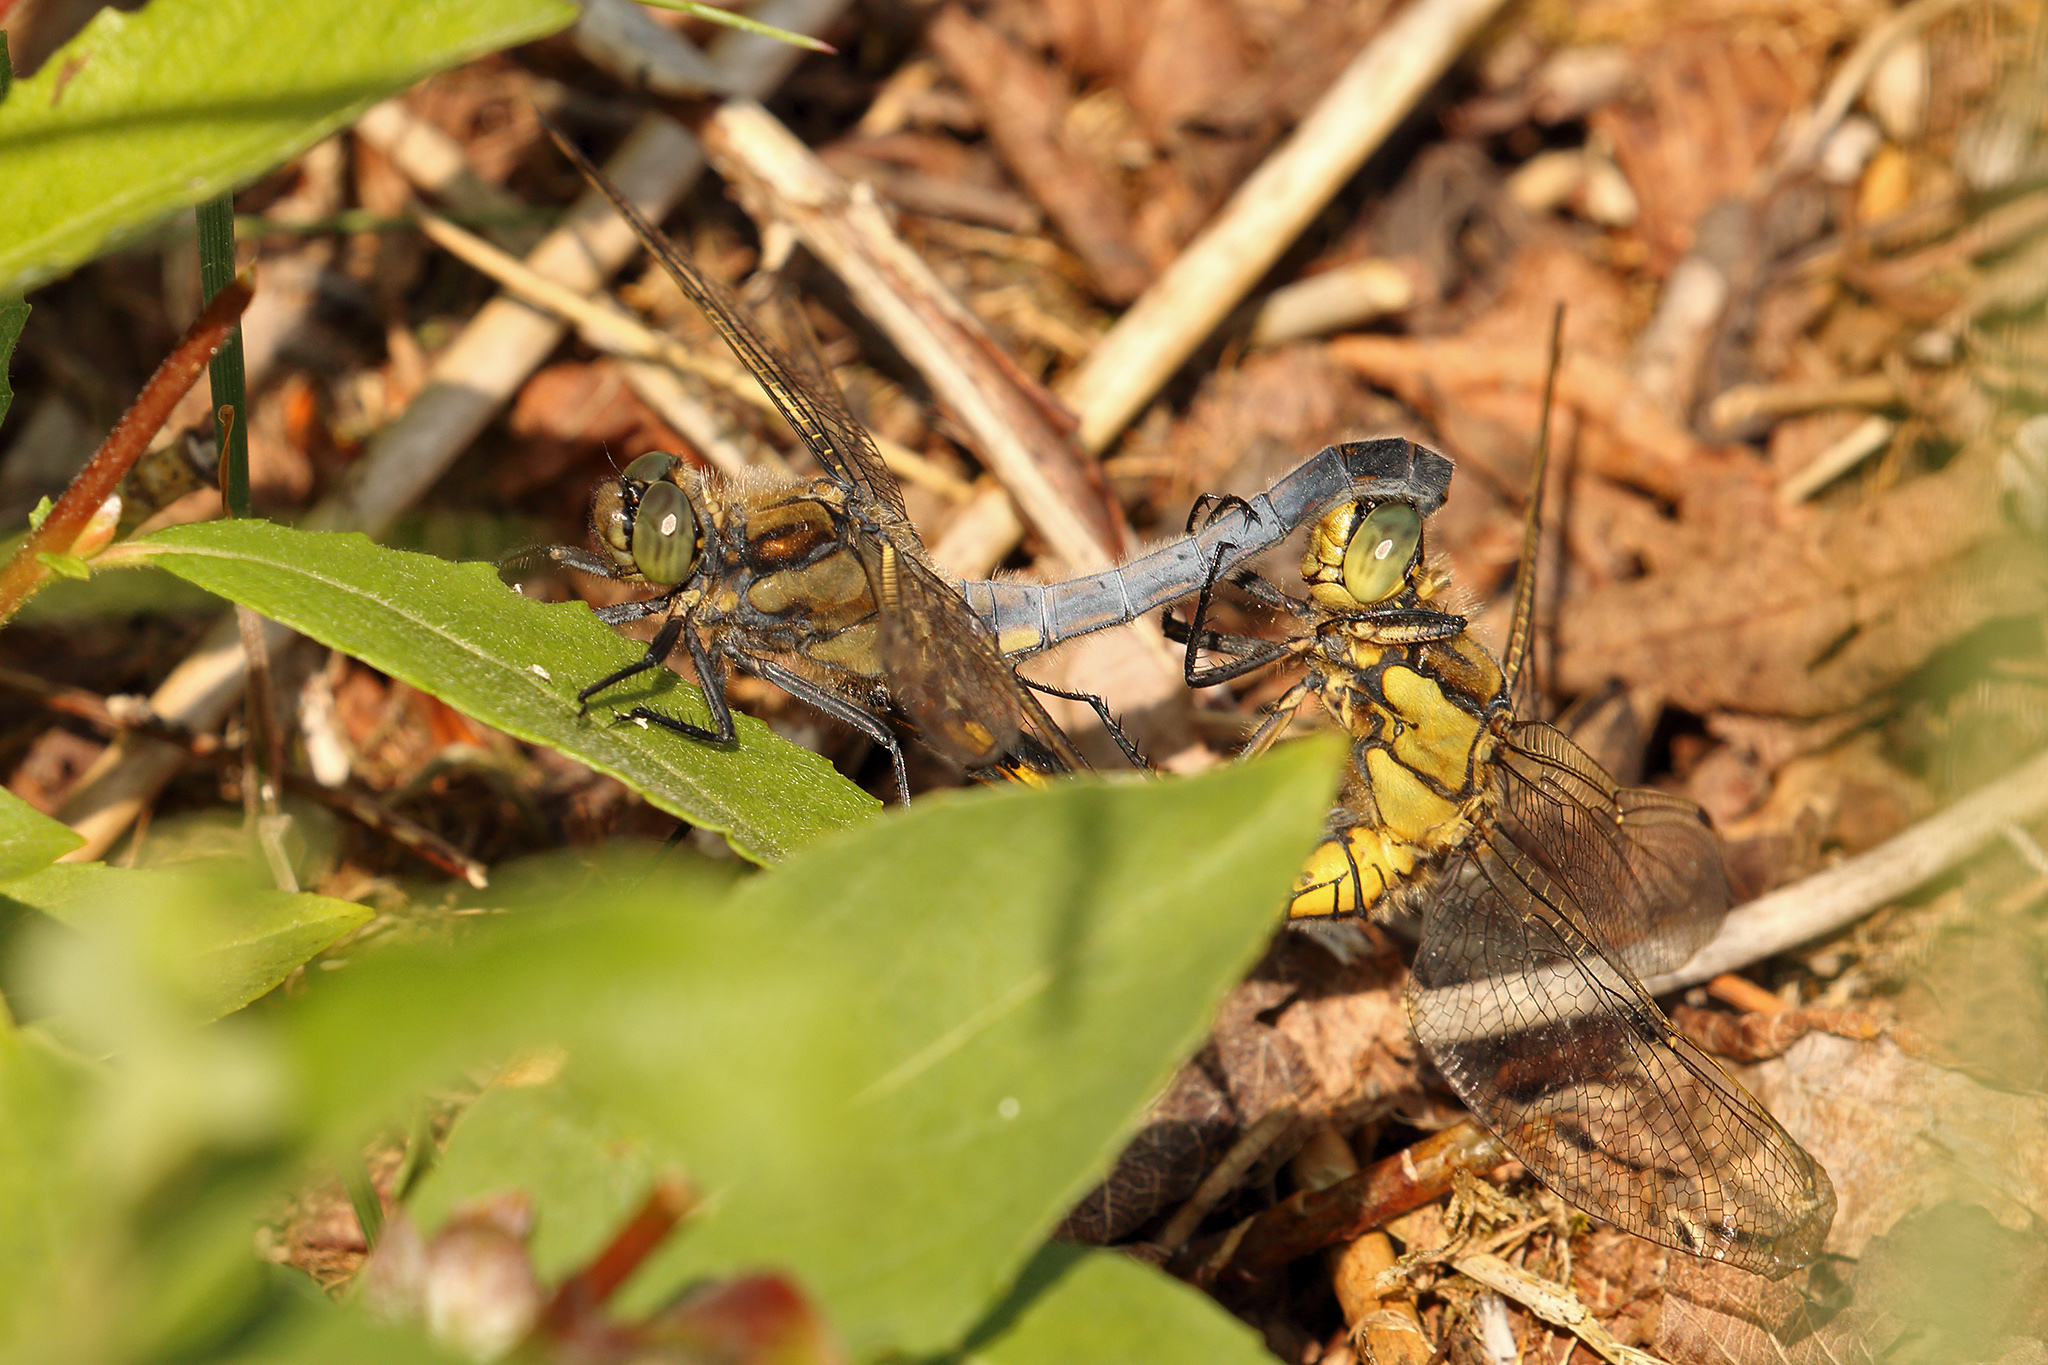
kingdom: Animalia
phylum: Arthropoda
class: Insecta
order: Odonata
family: Libellulidae
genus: Orthetrum
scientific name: Orthetrum cancellatum
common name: Black-tailed skimmer
